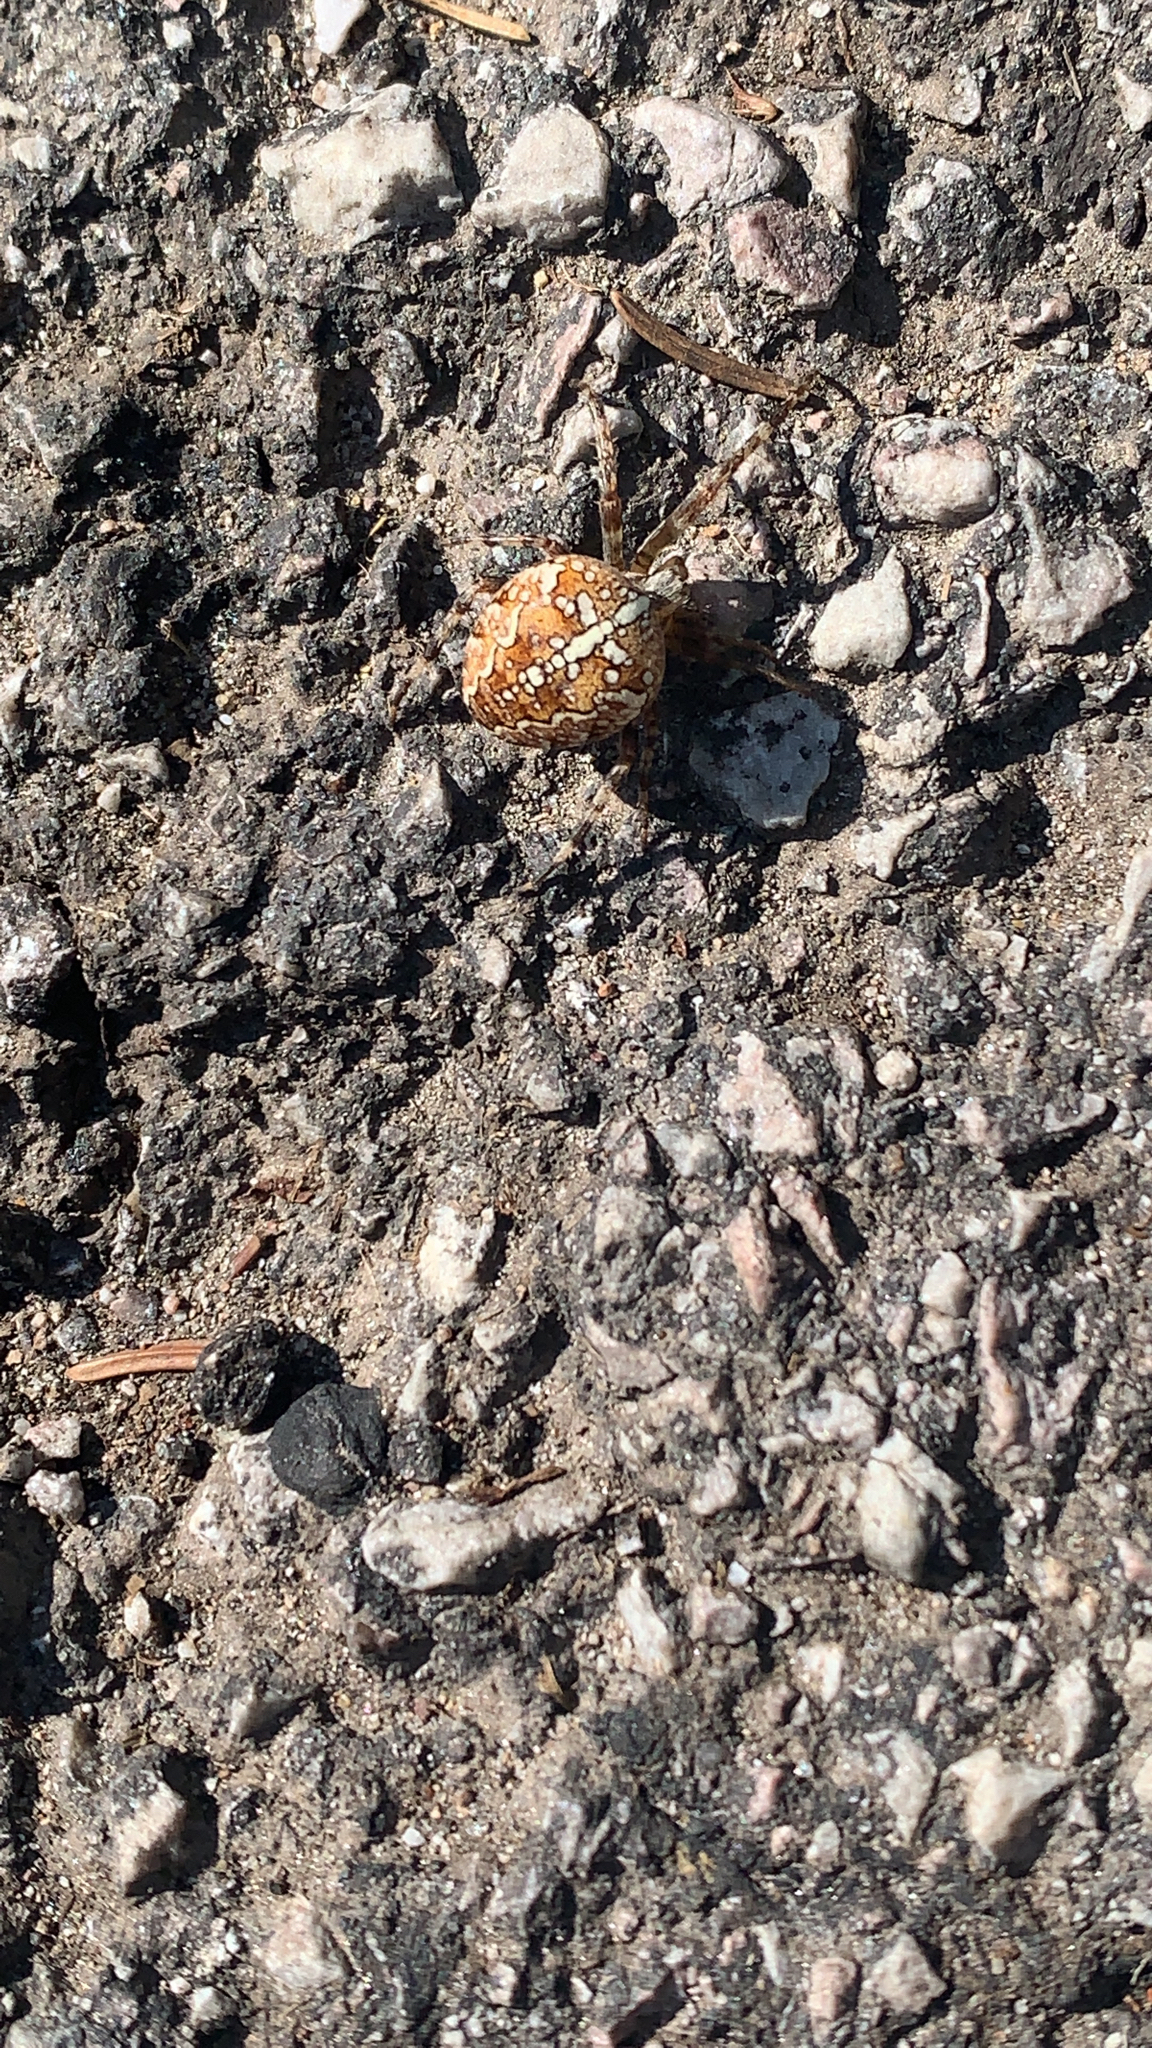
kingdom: Animalia
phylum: Arthropoda
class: Arachnida
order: Araneae
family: Araneidae
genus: Araneus
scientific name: Araneus diadematus
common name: Cross orbweaver
